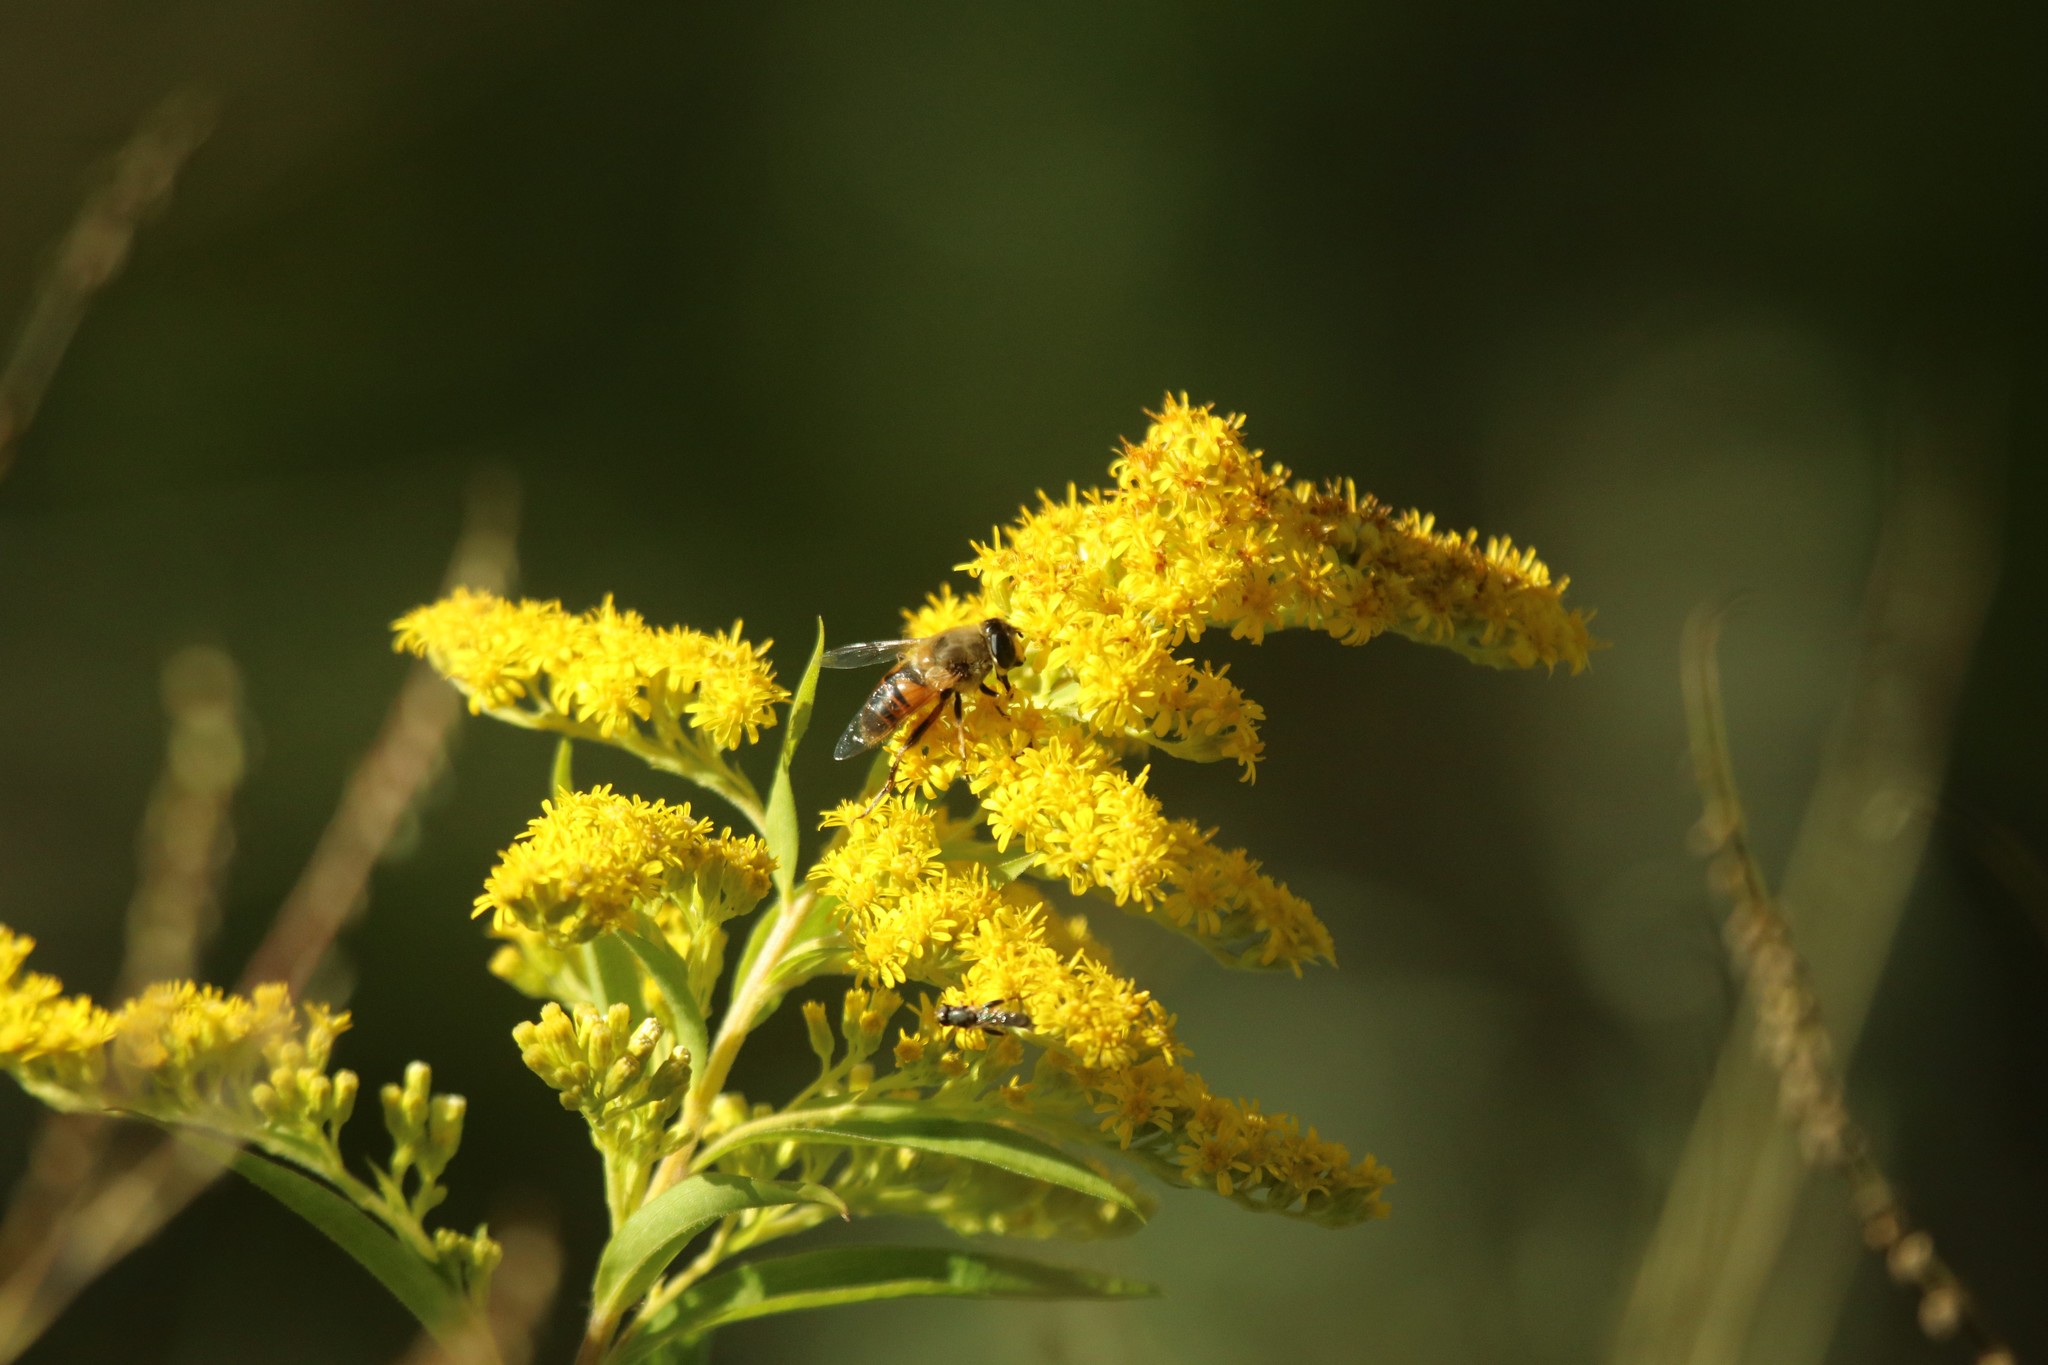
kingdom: Plantae
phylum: Tracheophyta
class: Magnoliopsida
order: Asterales
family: Asteraceae
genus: Solidago
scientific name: Solidago gigantea
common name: Giant goldenrod
